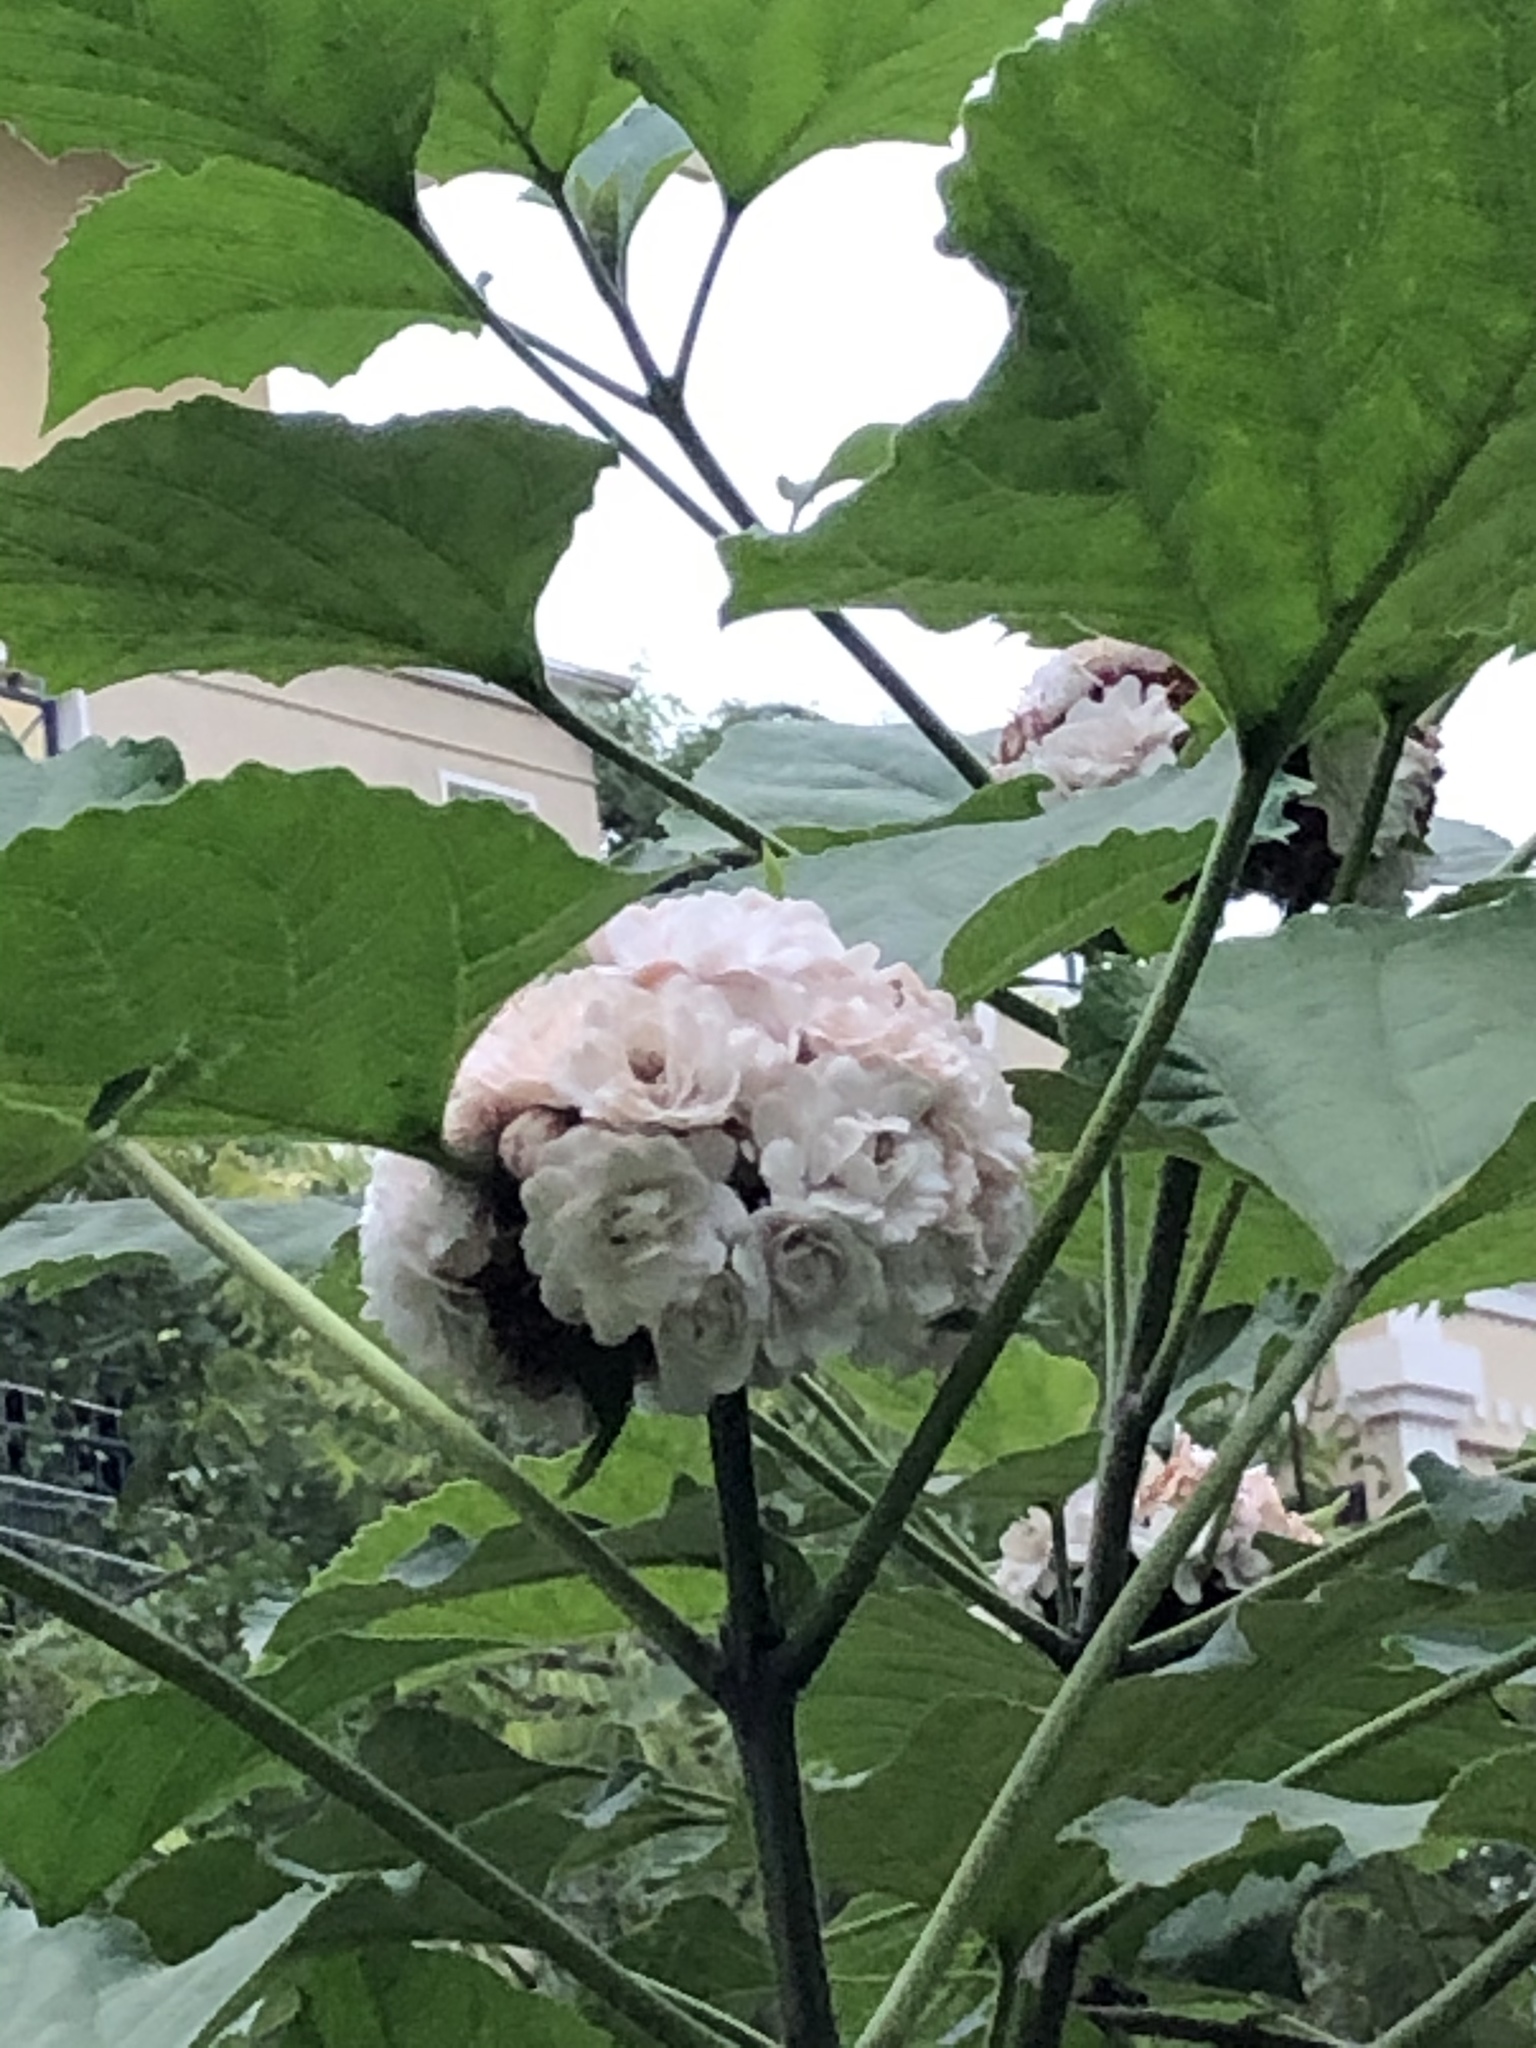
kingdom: Plantae
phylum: Tracheophyta
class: Magnoliopsida
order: Lamiales
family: Lamiaceae
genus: Clerodendrum
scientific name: Clerodendrum chinense
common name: Stickbush
